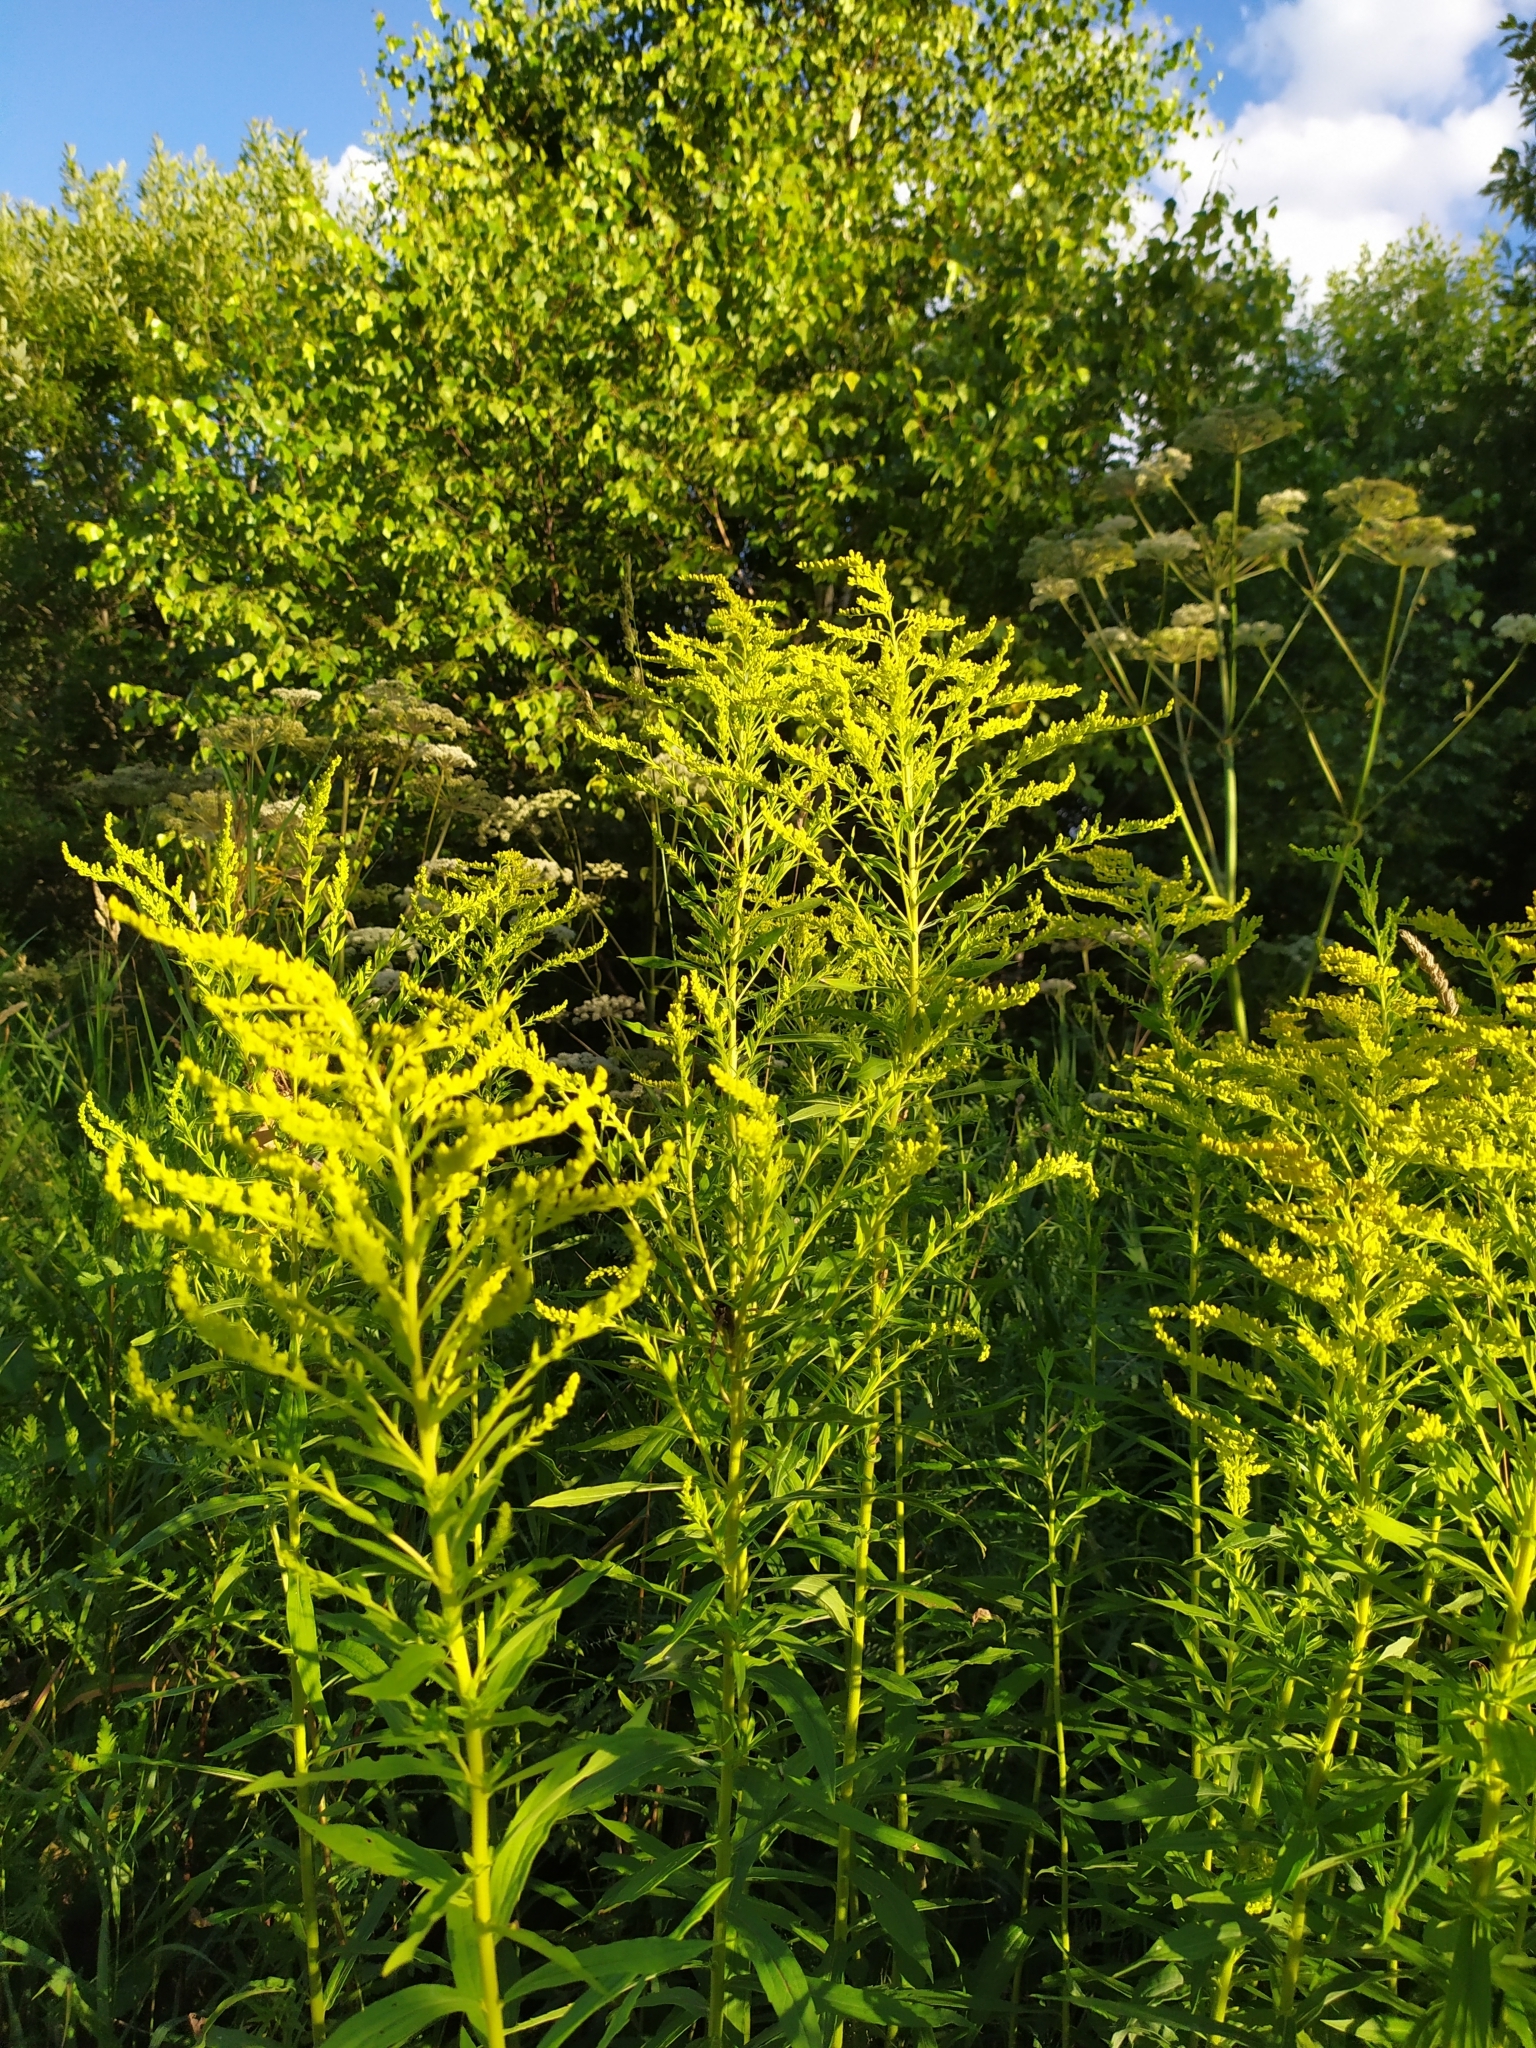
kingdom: Plantae
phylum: Tracheophyta
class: Magnoliopsida
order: Asterales
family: Asteraceae
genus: Solidago
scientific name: Solidago canadensis
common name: Canada goldenrod
